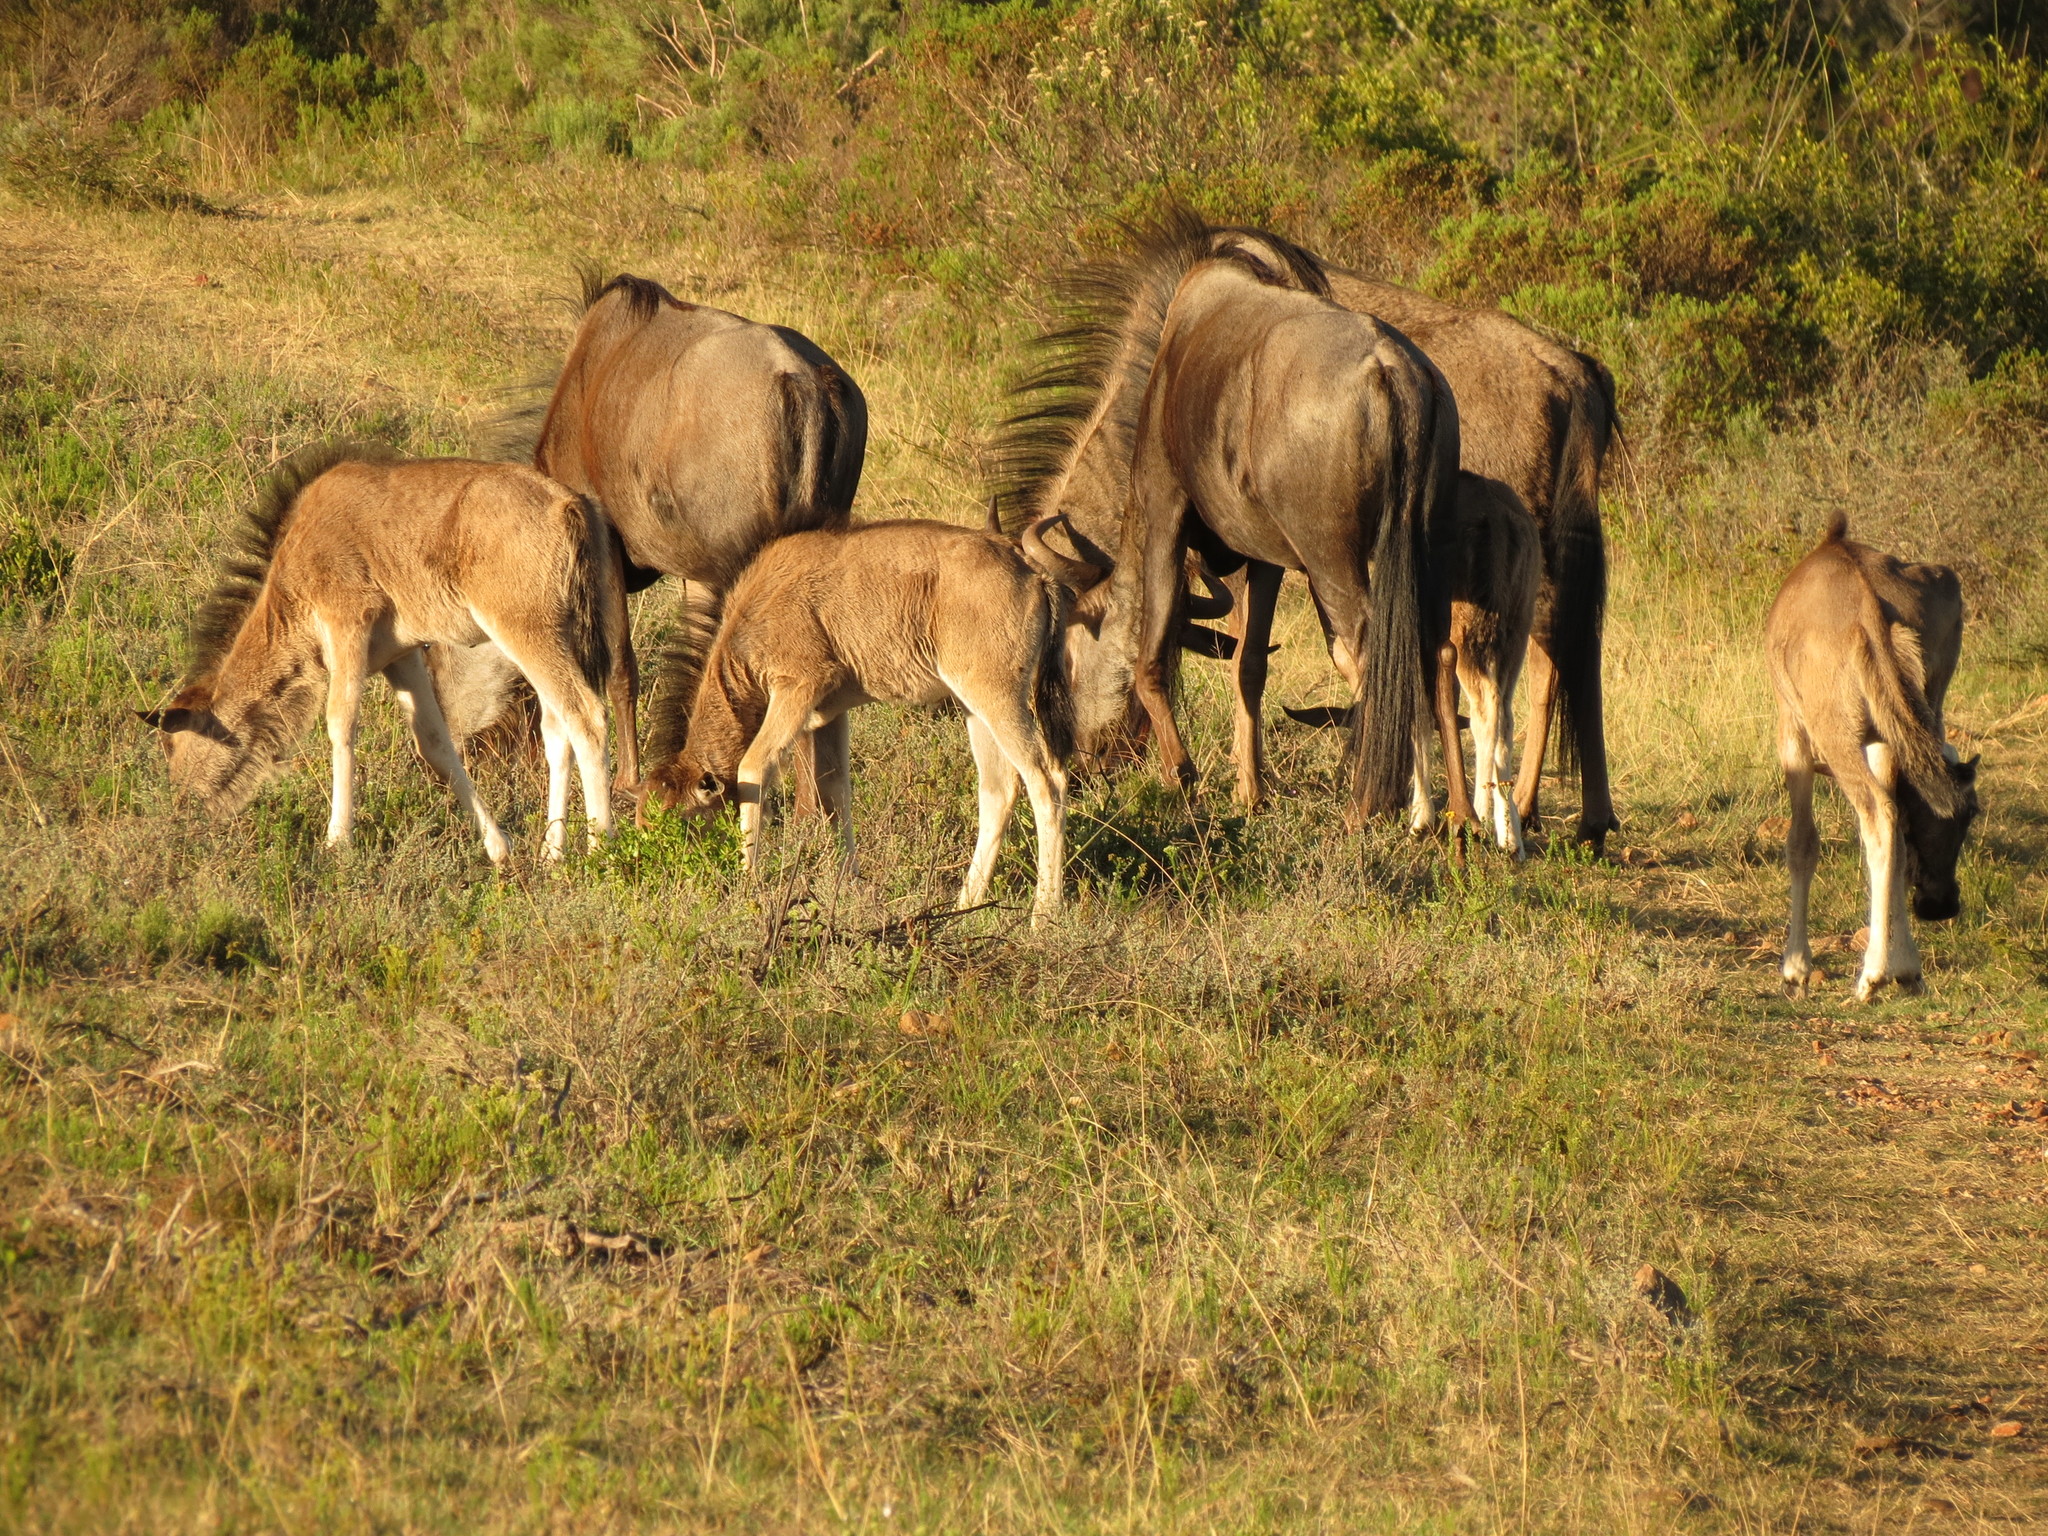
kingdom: Animalia
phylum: Chordata
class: Mammalia
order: Artiodactyla
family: Bovidae
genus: Connochaetes
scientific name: Connochaetes taurinus
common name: Blue wildebeest
